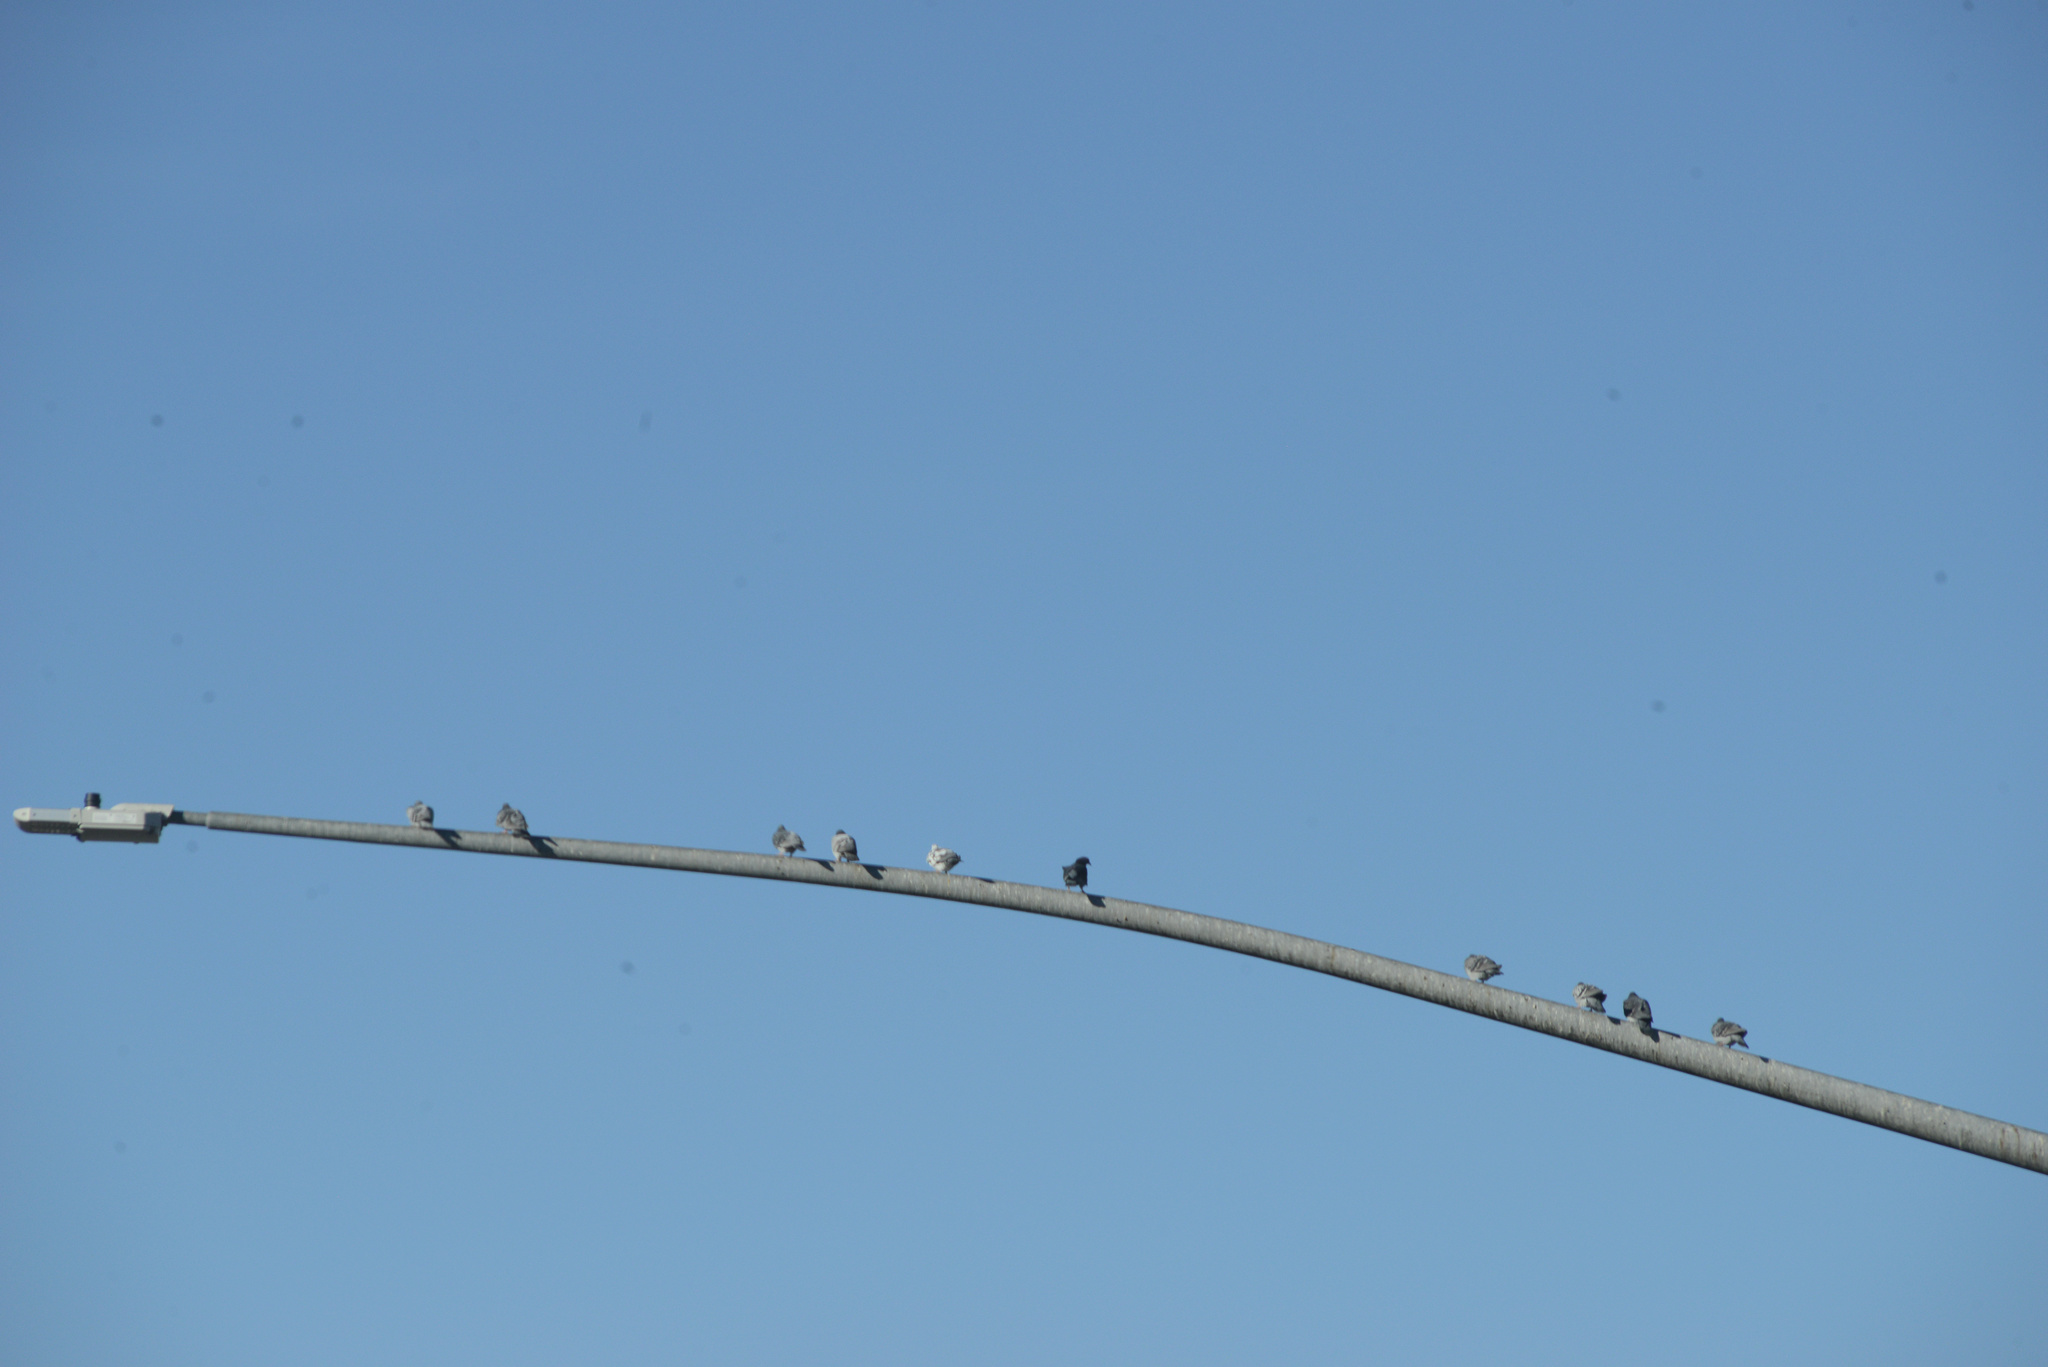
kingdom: Animalia
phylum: Chordata
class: Aves
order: Columbiformes
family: Columbidae
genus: Columba
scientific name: Columba livia
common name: Rock pigeon
